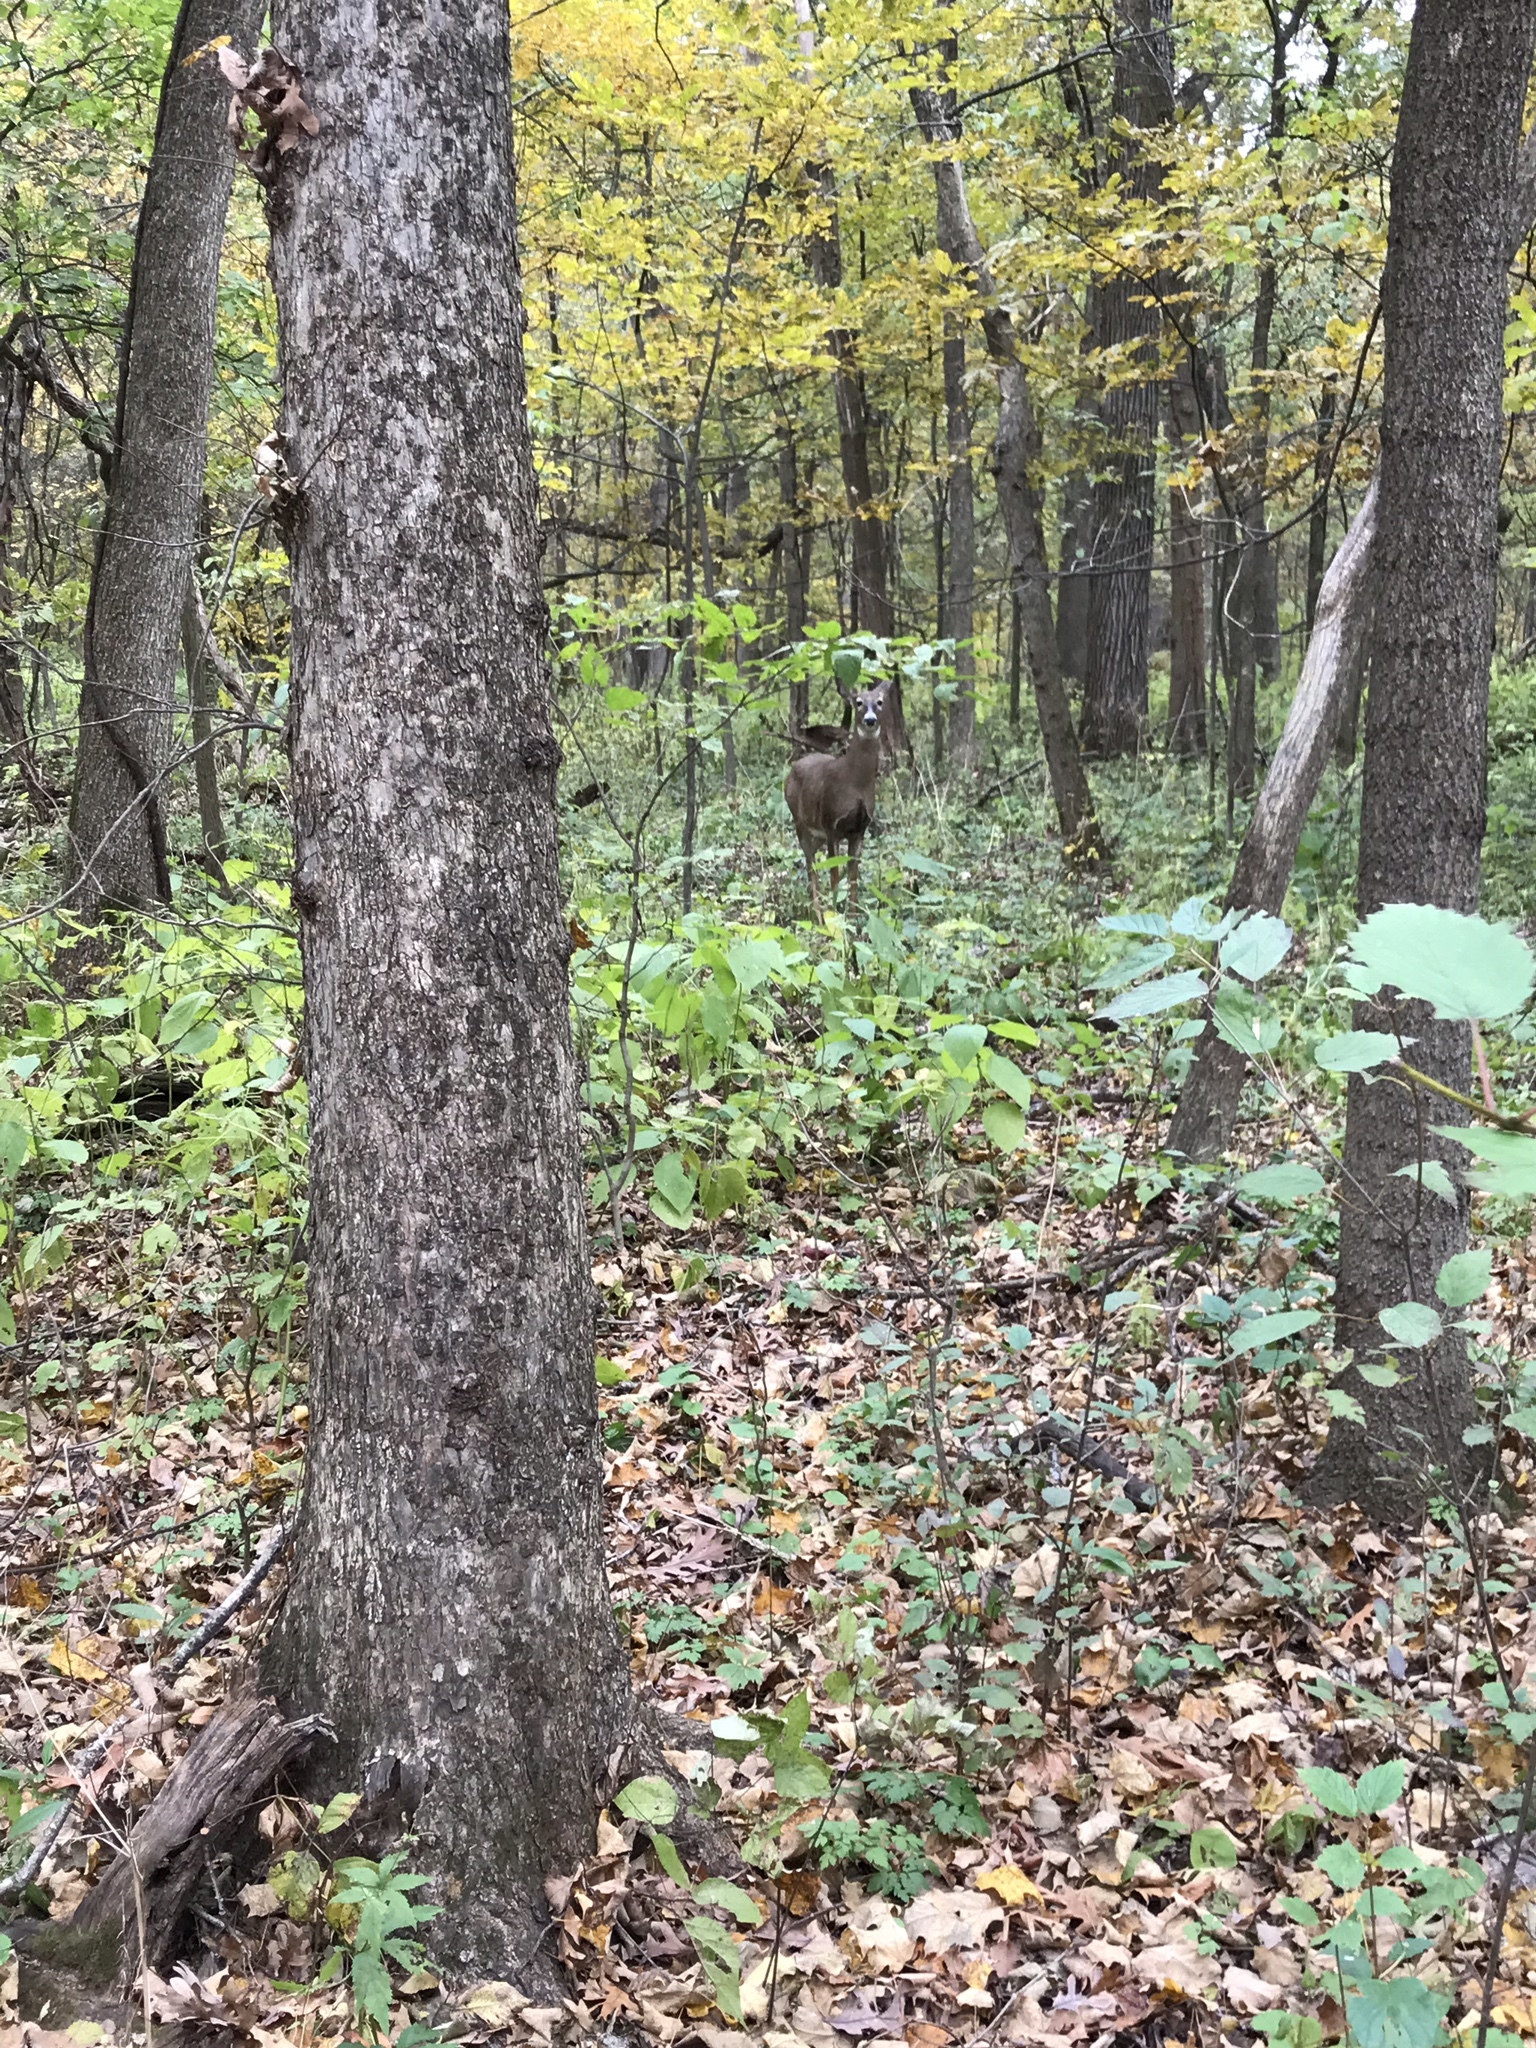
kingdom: Animalia
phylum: Chordata
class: Mammalia
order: Artiodactyla
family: Cervidae
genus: Odocoileus
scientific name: Odocoileus virginianus
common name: White-tailed deer
